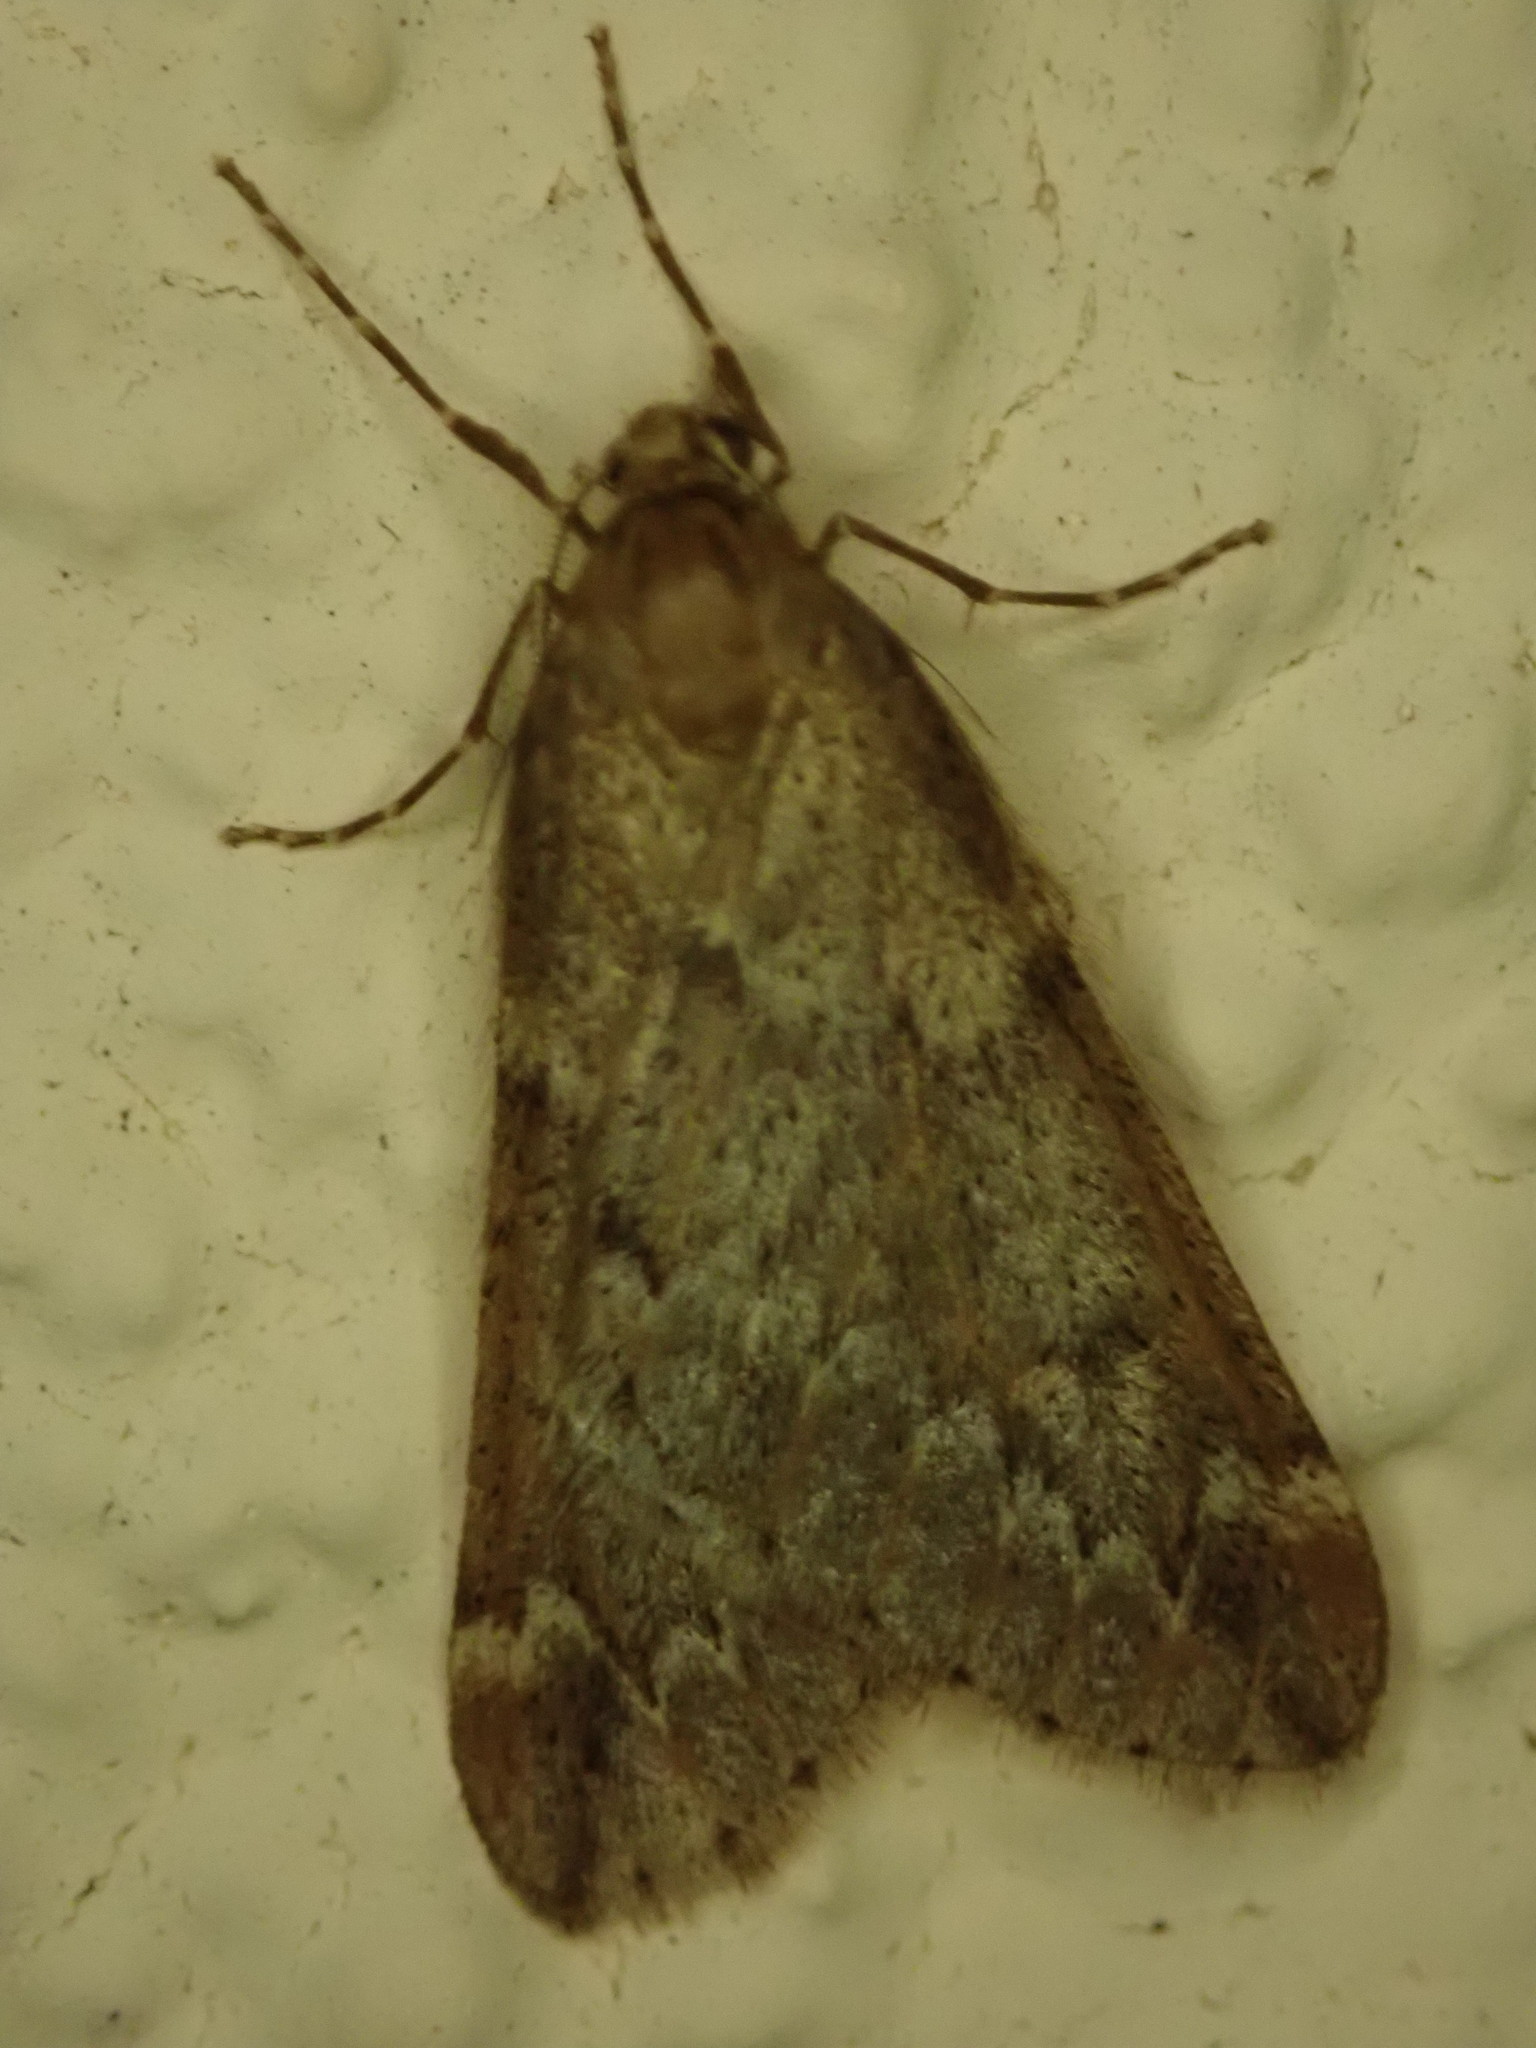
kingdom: Animalia
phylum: Arthropoda
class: Insecta
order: Lepidoptera
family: Geometridae
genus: Alsophila
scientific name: Alsophila aescularia
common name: March moth
